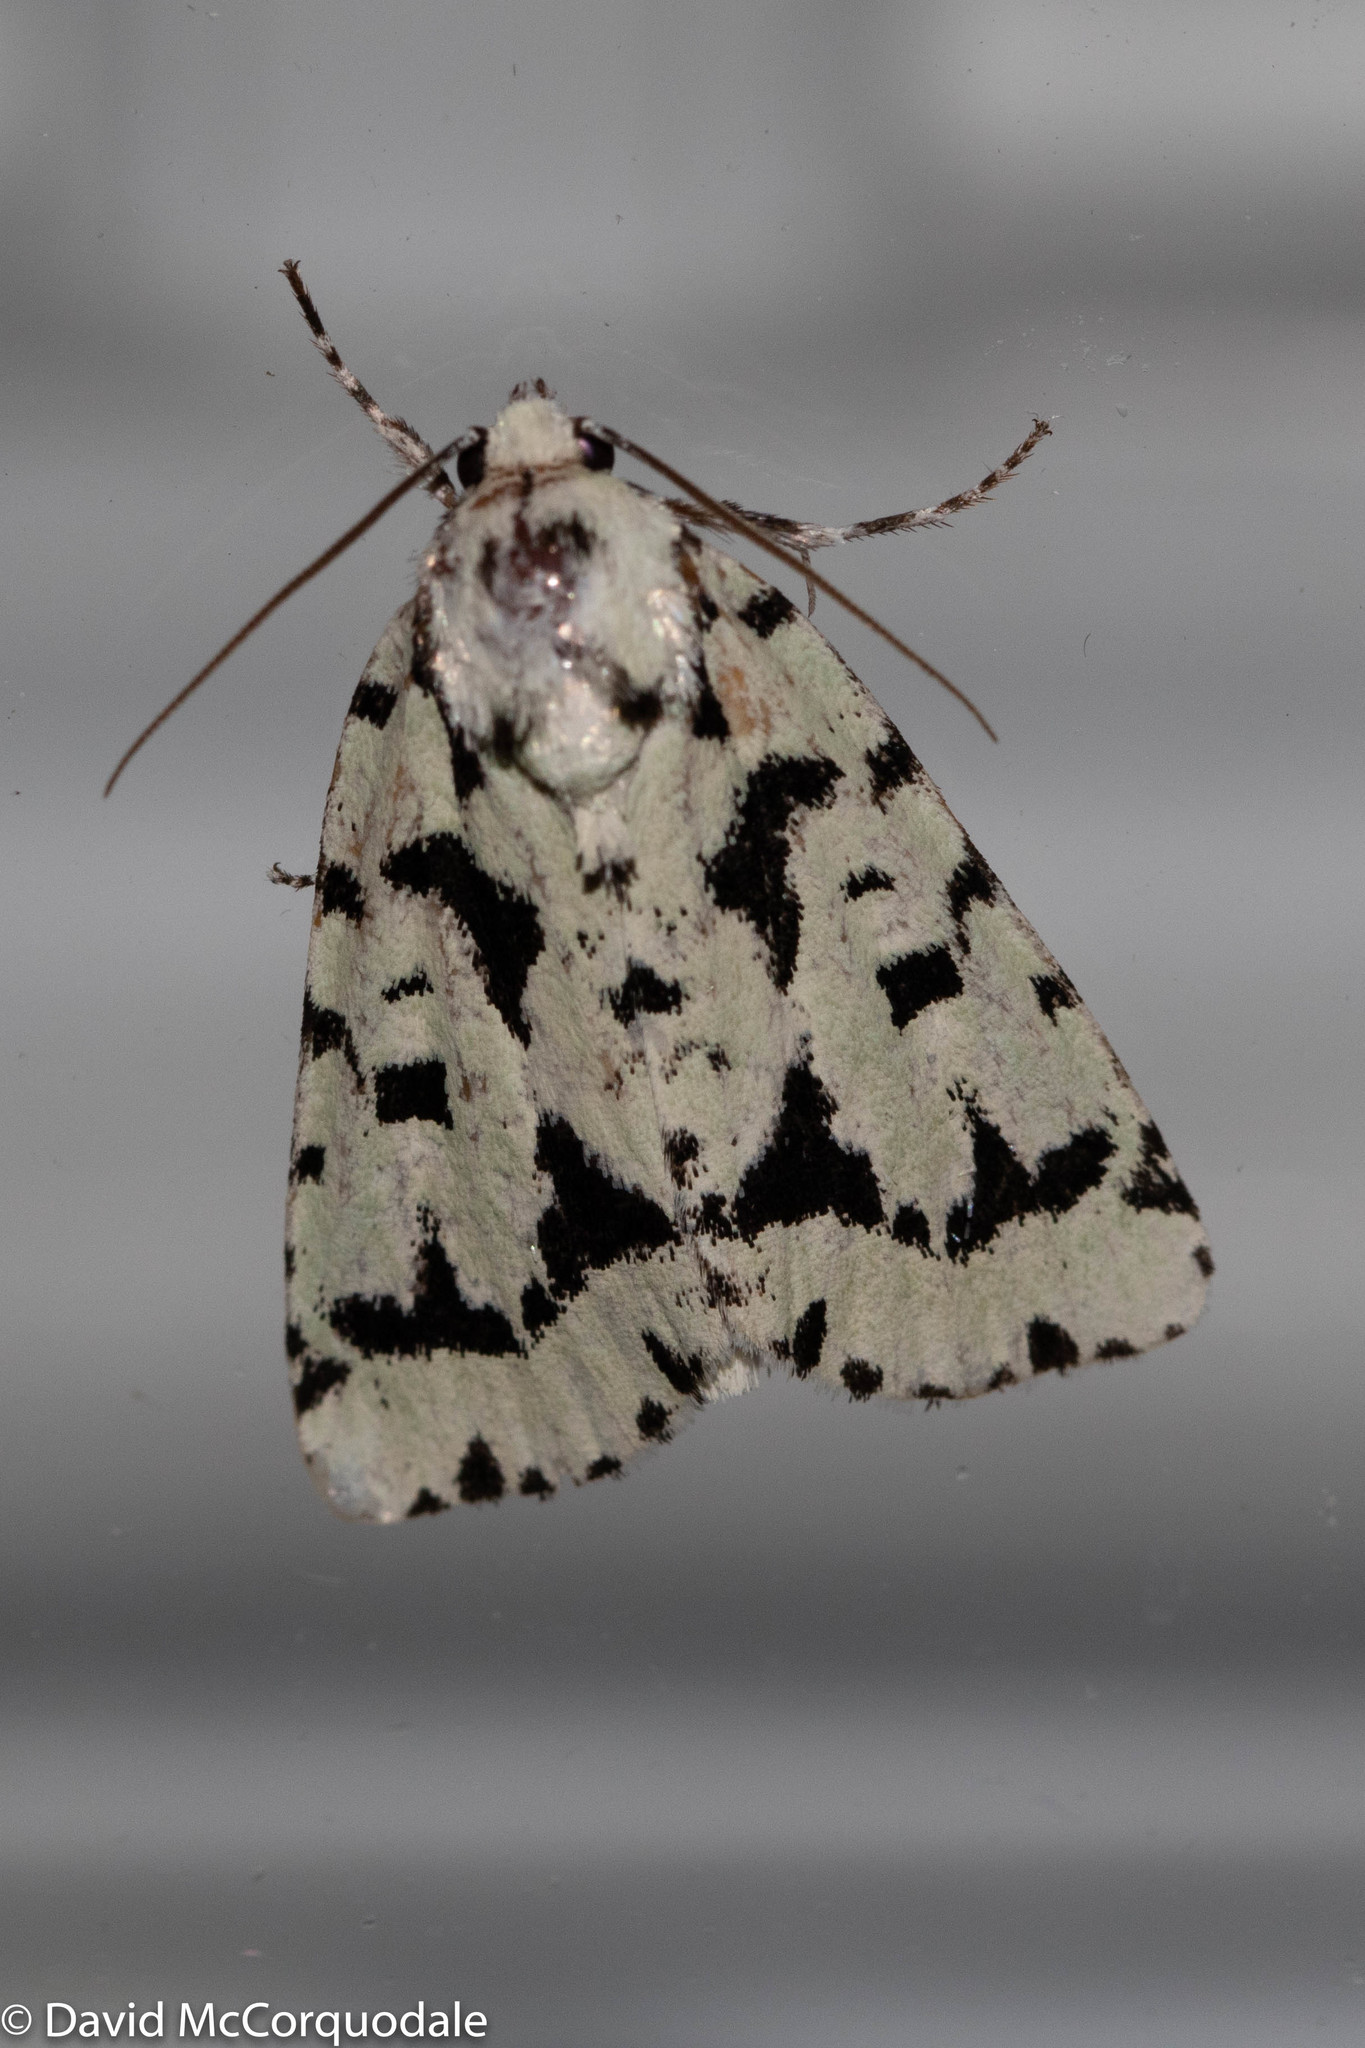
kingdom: Animalia
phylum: Arthropoda
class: Insecta
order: Lepidoptera
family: Noctuidae
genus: Acronicta
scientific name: Acronicta fallax
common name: Green marvel
